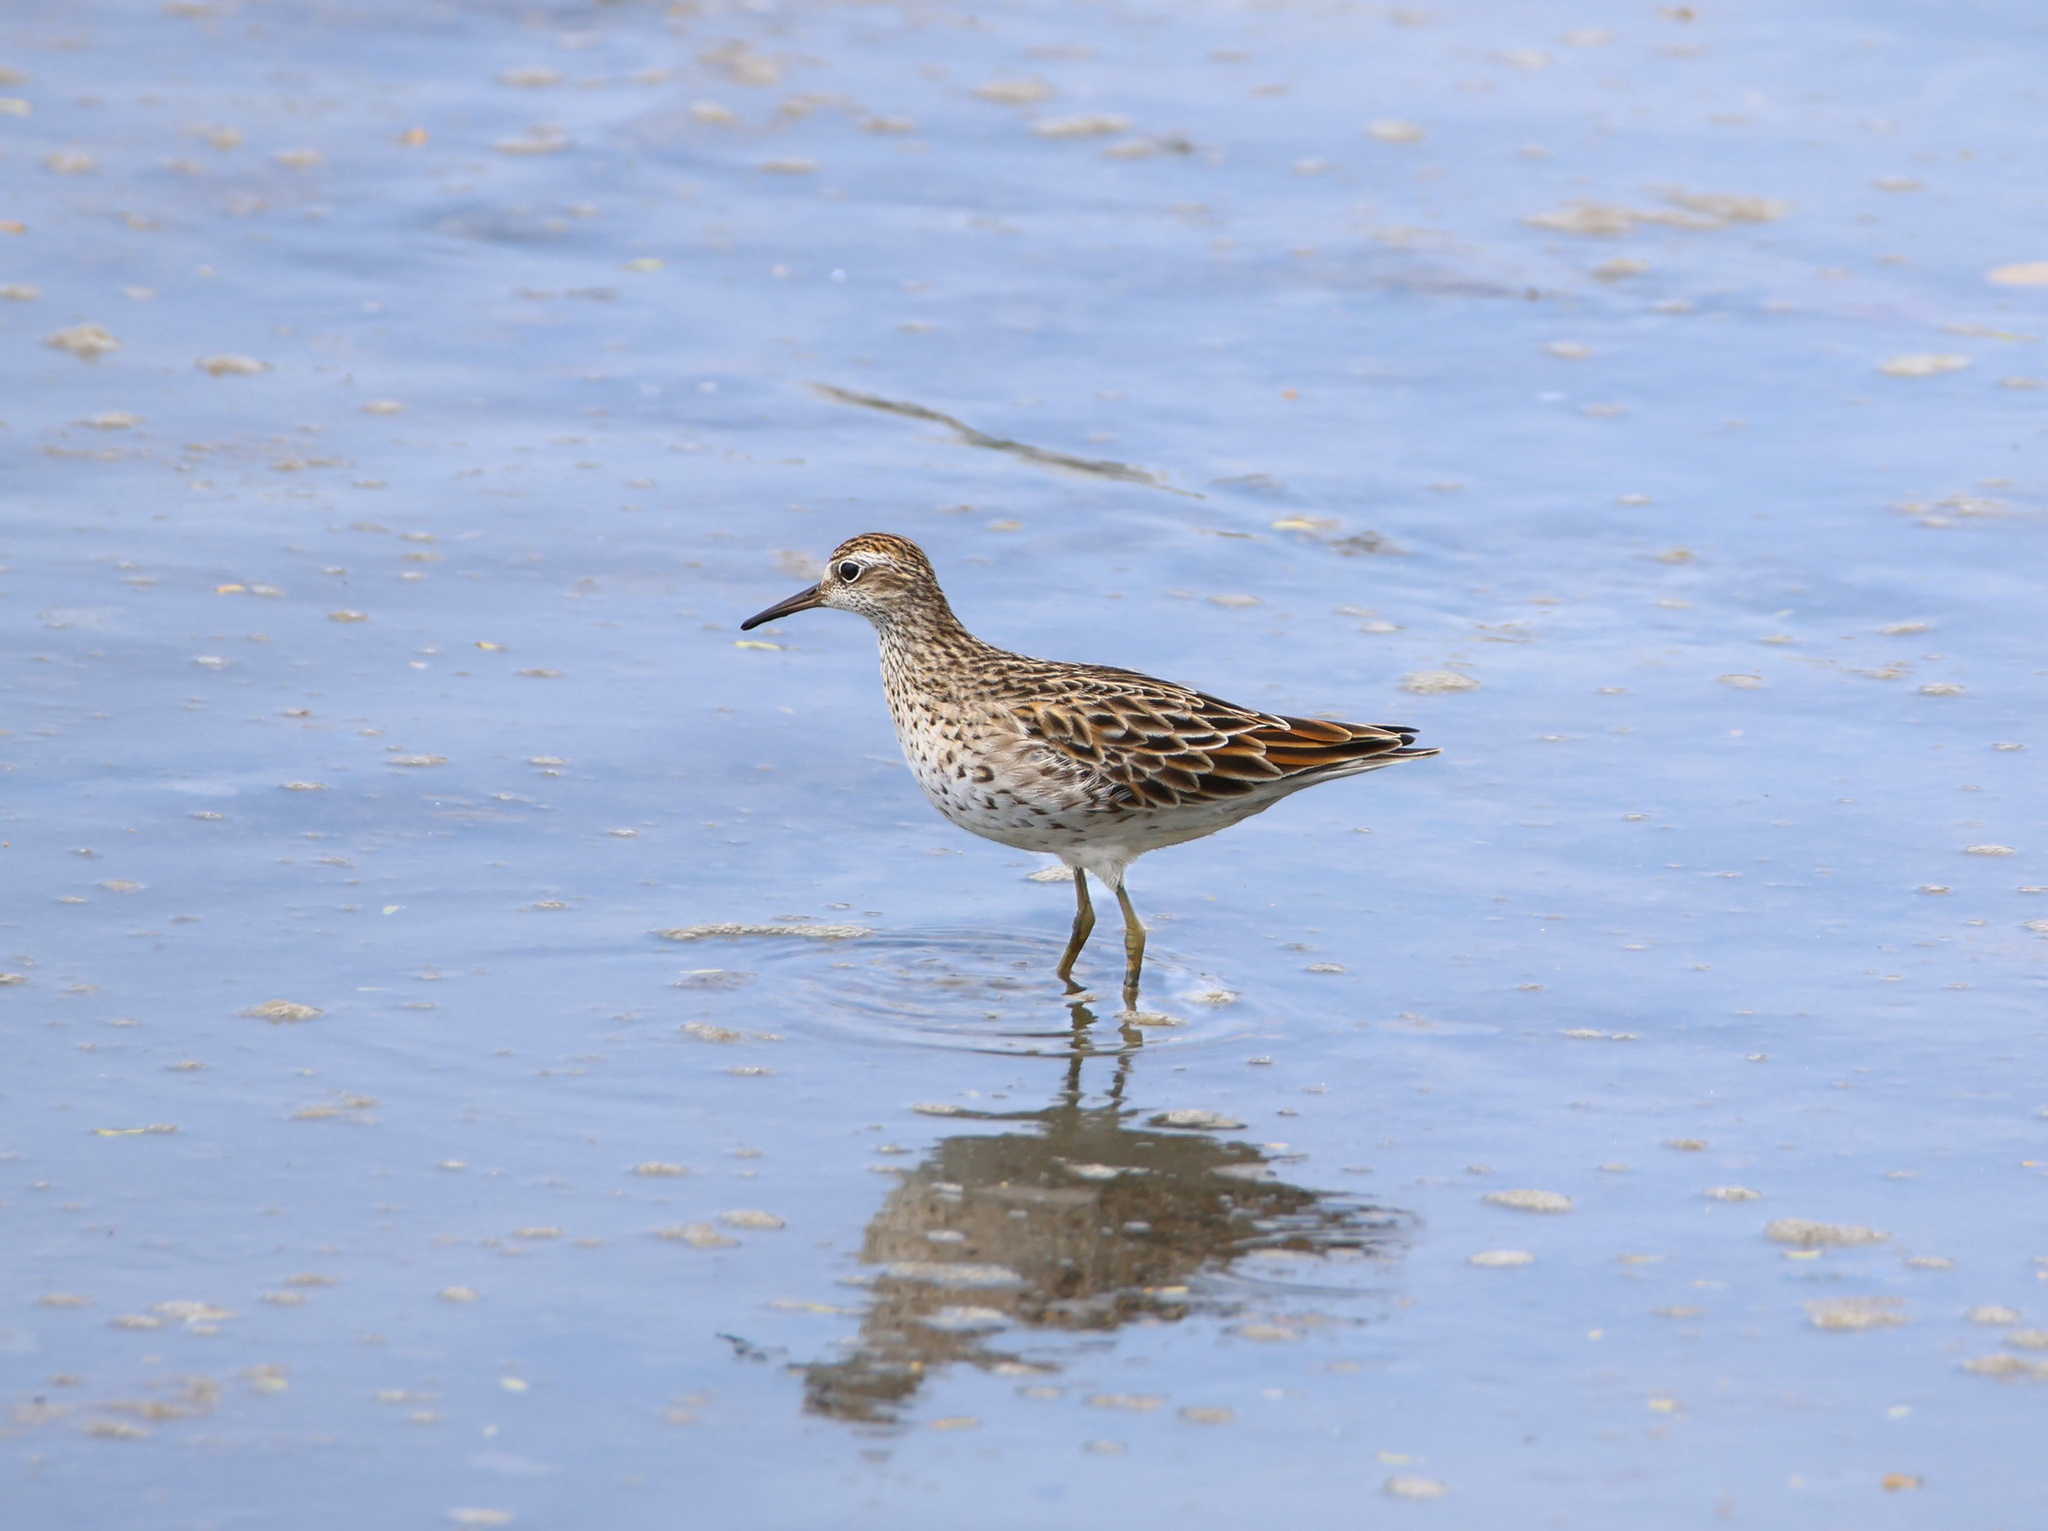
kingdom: Animalia
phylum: Chordata
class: Aves
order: Charadriiformes
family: Scolopacidae
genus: Calidris
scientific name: Calidris acuminata
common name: Sharp-tailed sandpiper
